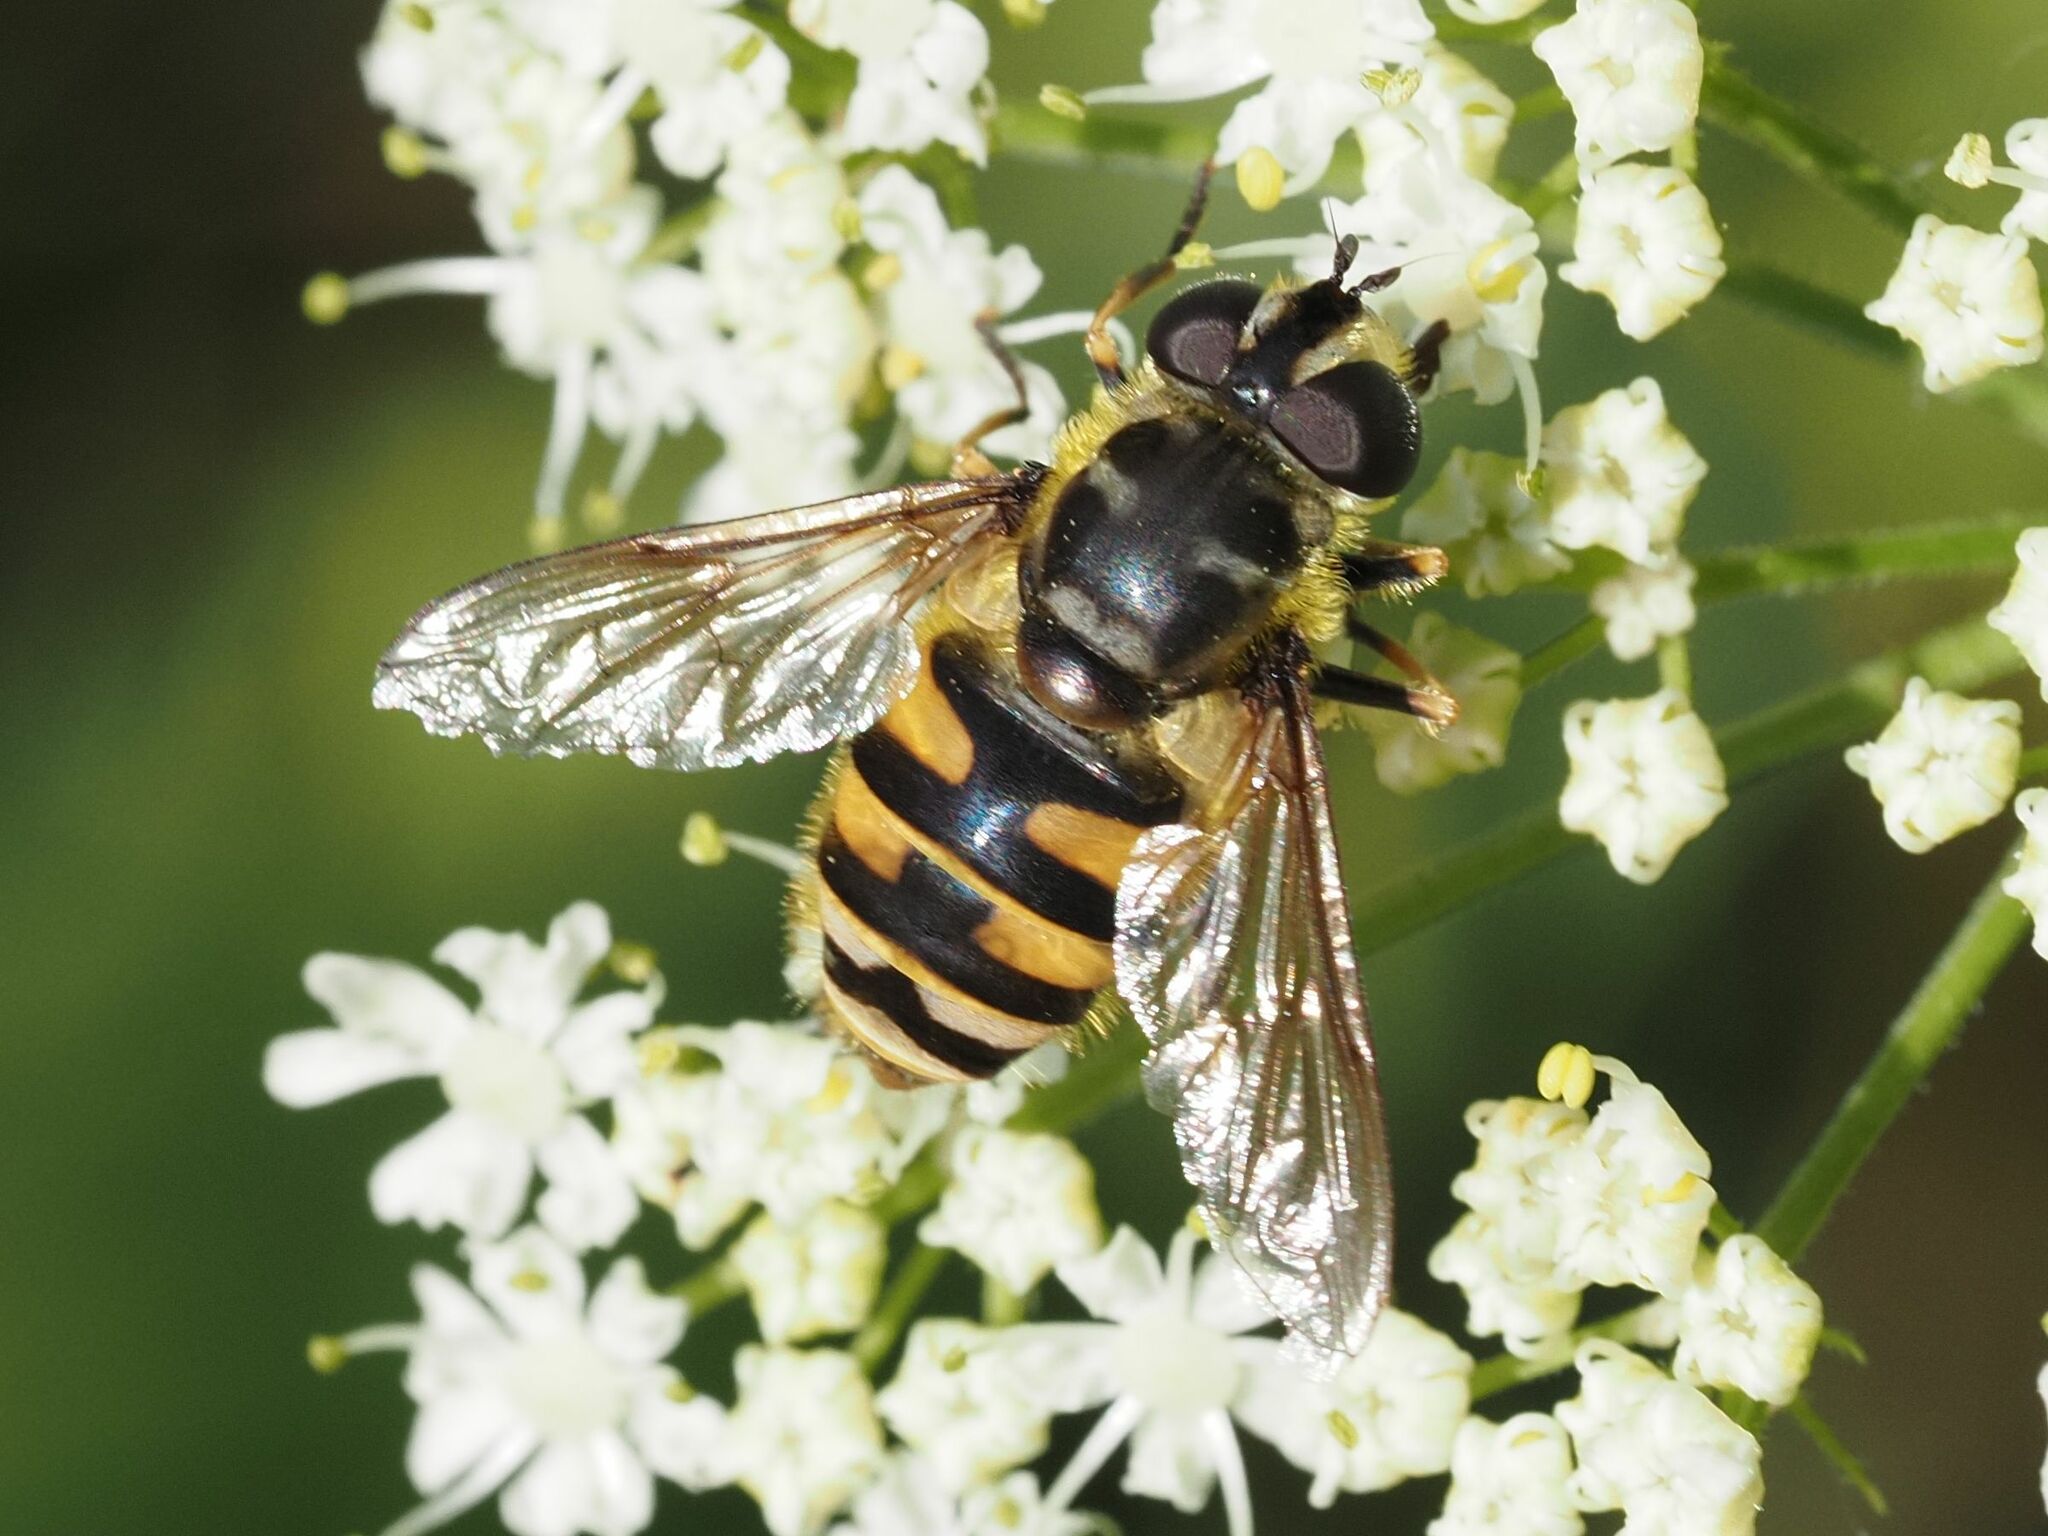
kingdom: Animalia
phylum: Arthropoda
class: Insecta
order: Diptera
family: Syrphidae
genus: Myathropa
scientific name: Myathropa florea
